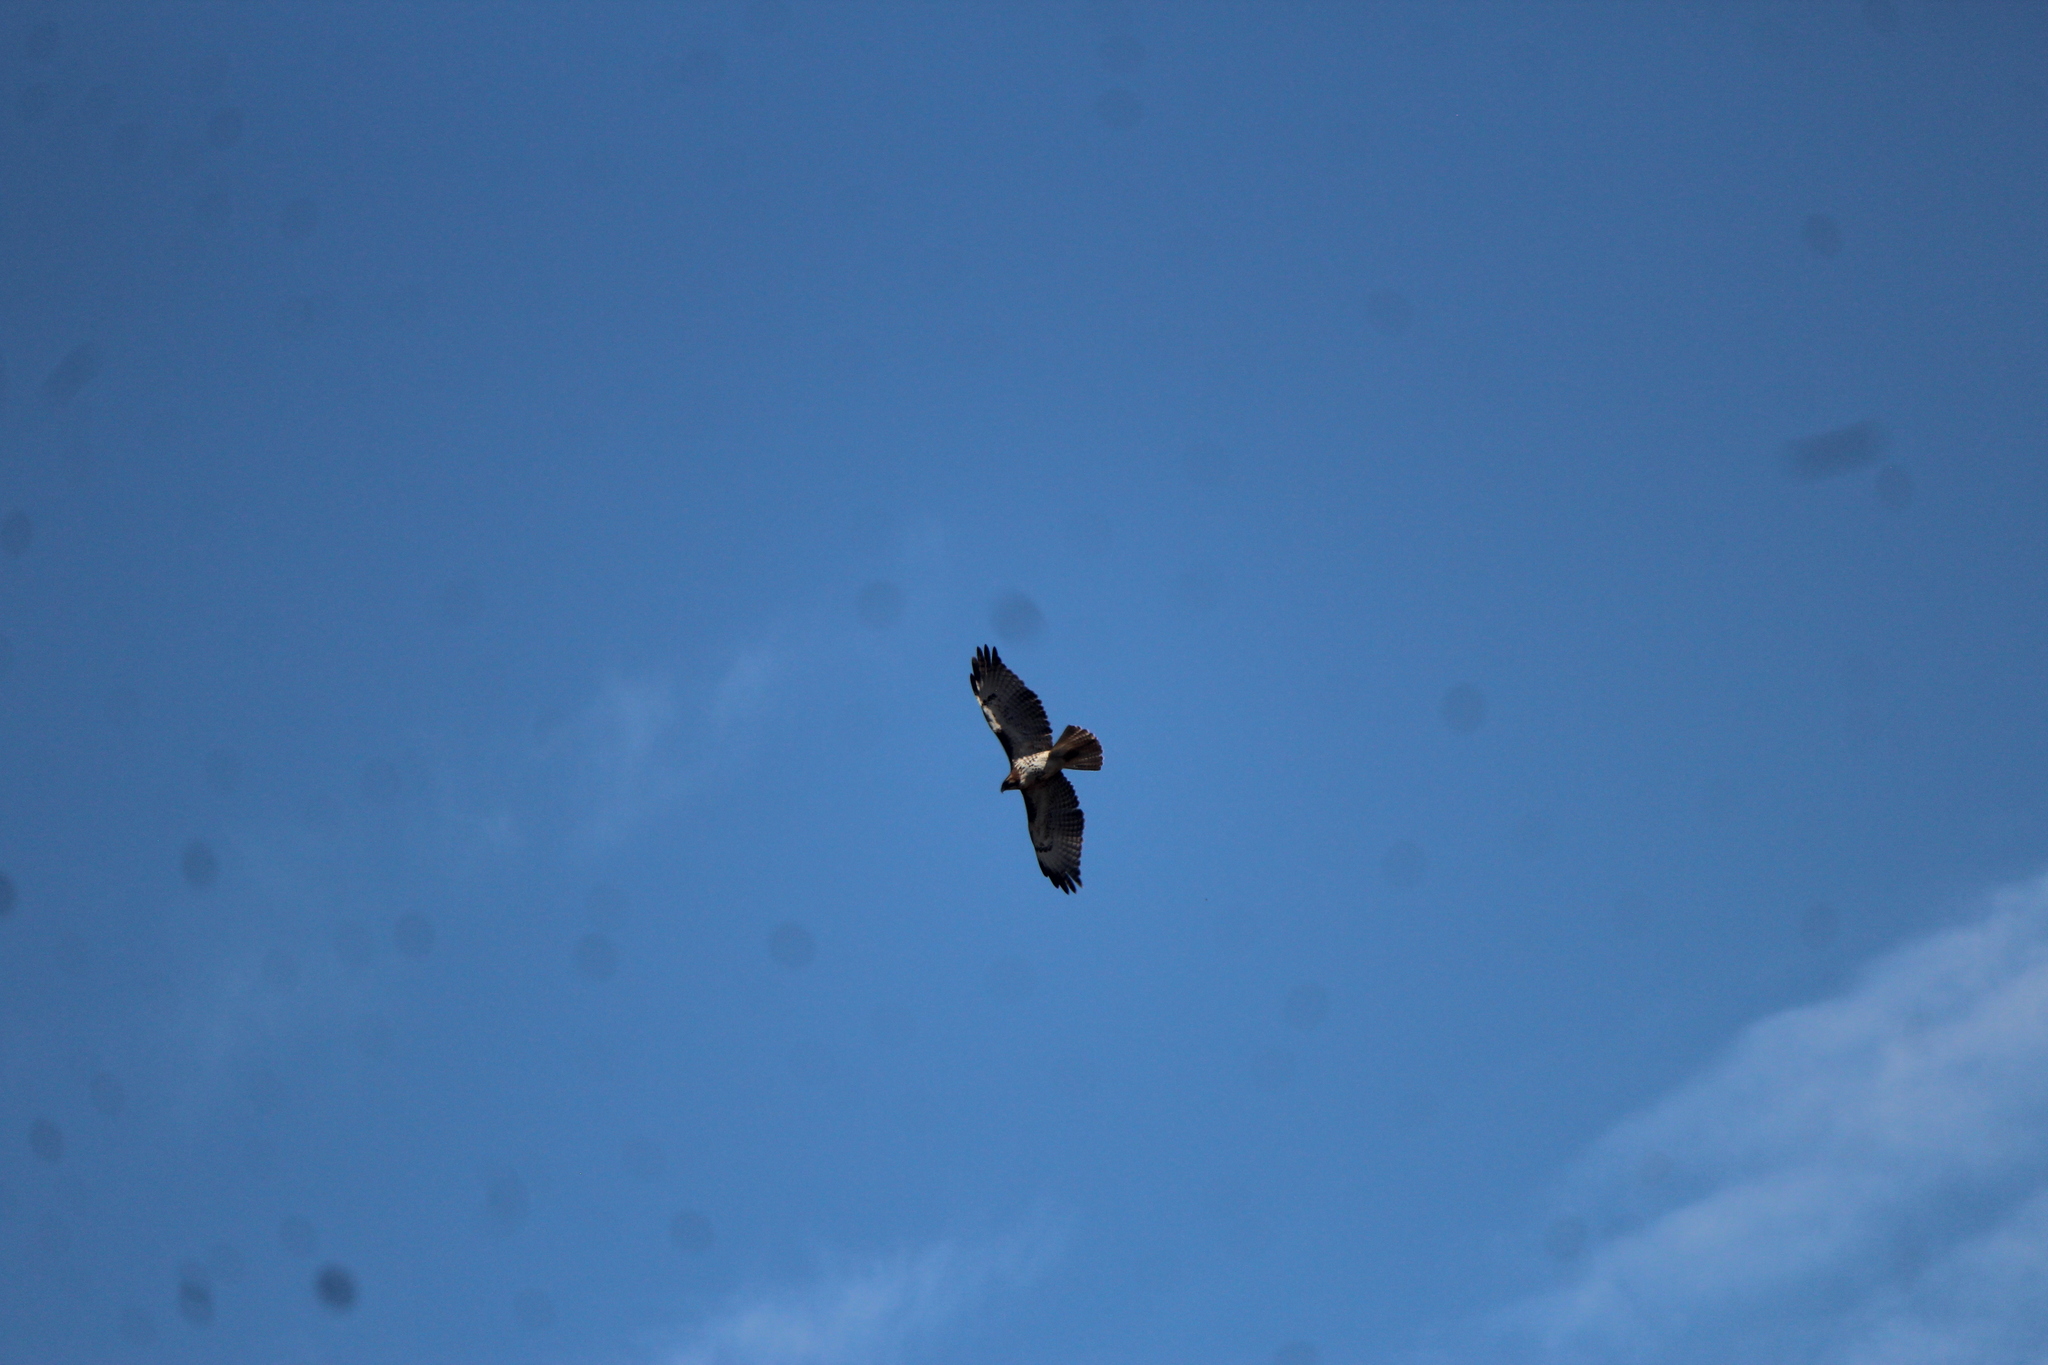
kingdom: Animalia
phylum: Chordata
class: Aves
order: Accipitriformes
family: Accipitridae
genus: Buteo
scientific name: Buteo jamaicensis
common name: Red-tailed hawk
